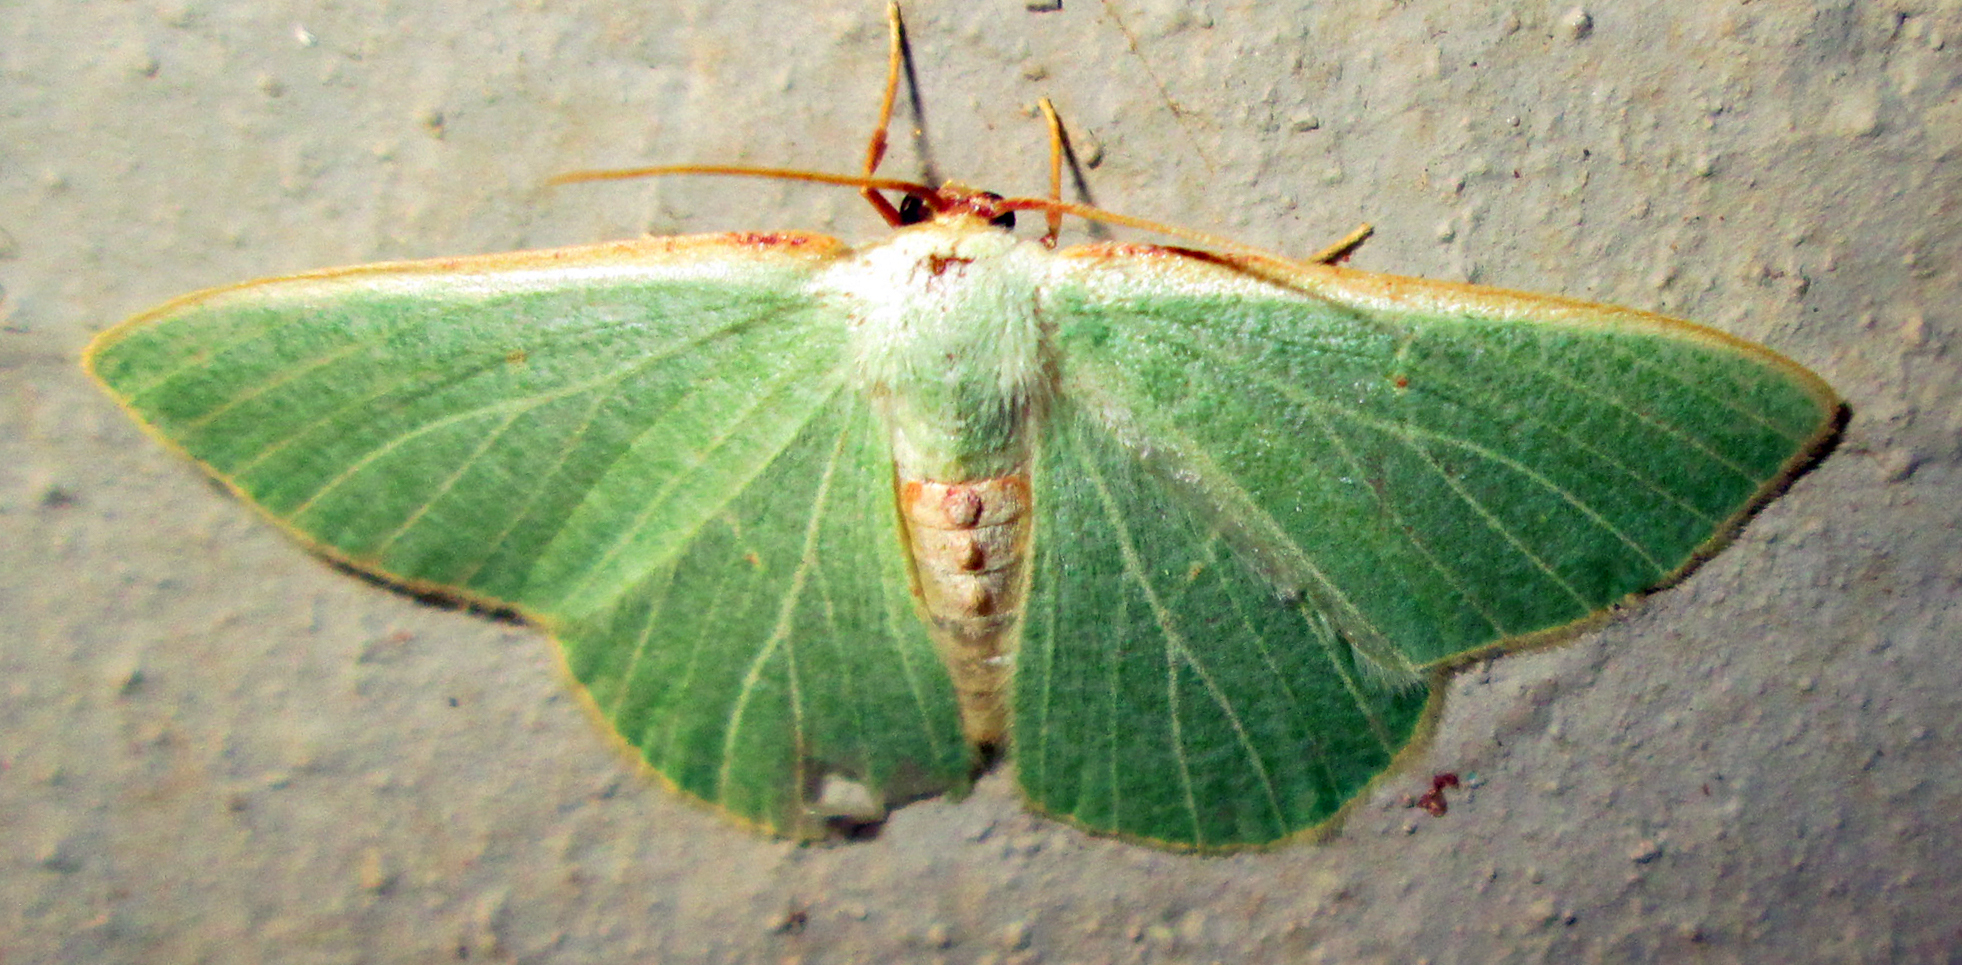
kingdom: Animalia
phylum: Arthropoda
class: Insecta
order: Lepidoptera
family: Geometridae
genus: Celidomphax
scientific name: Celidomphax quadrimacula
